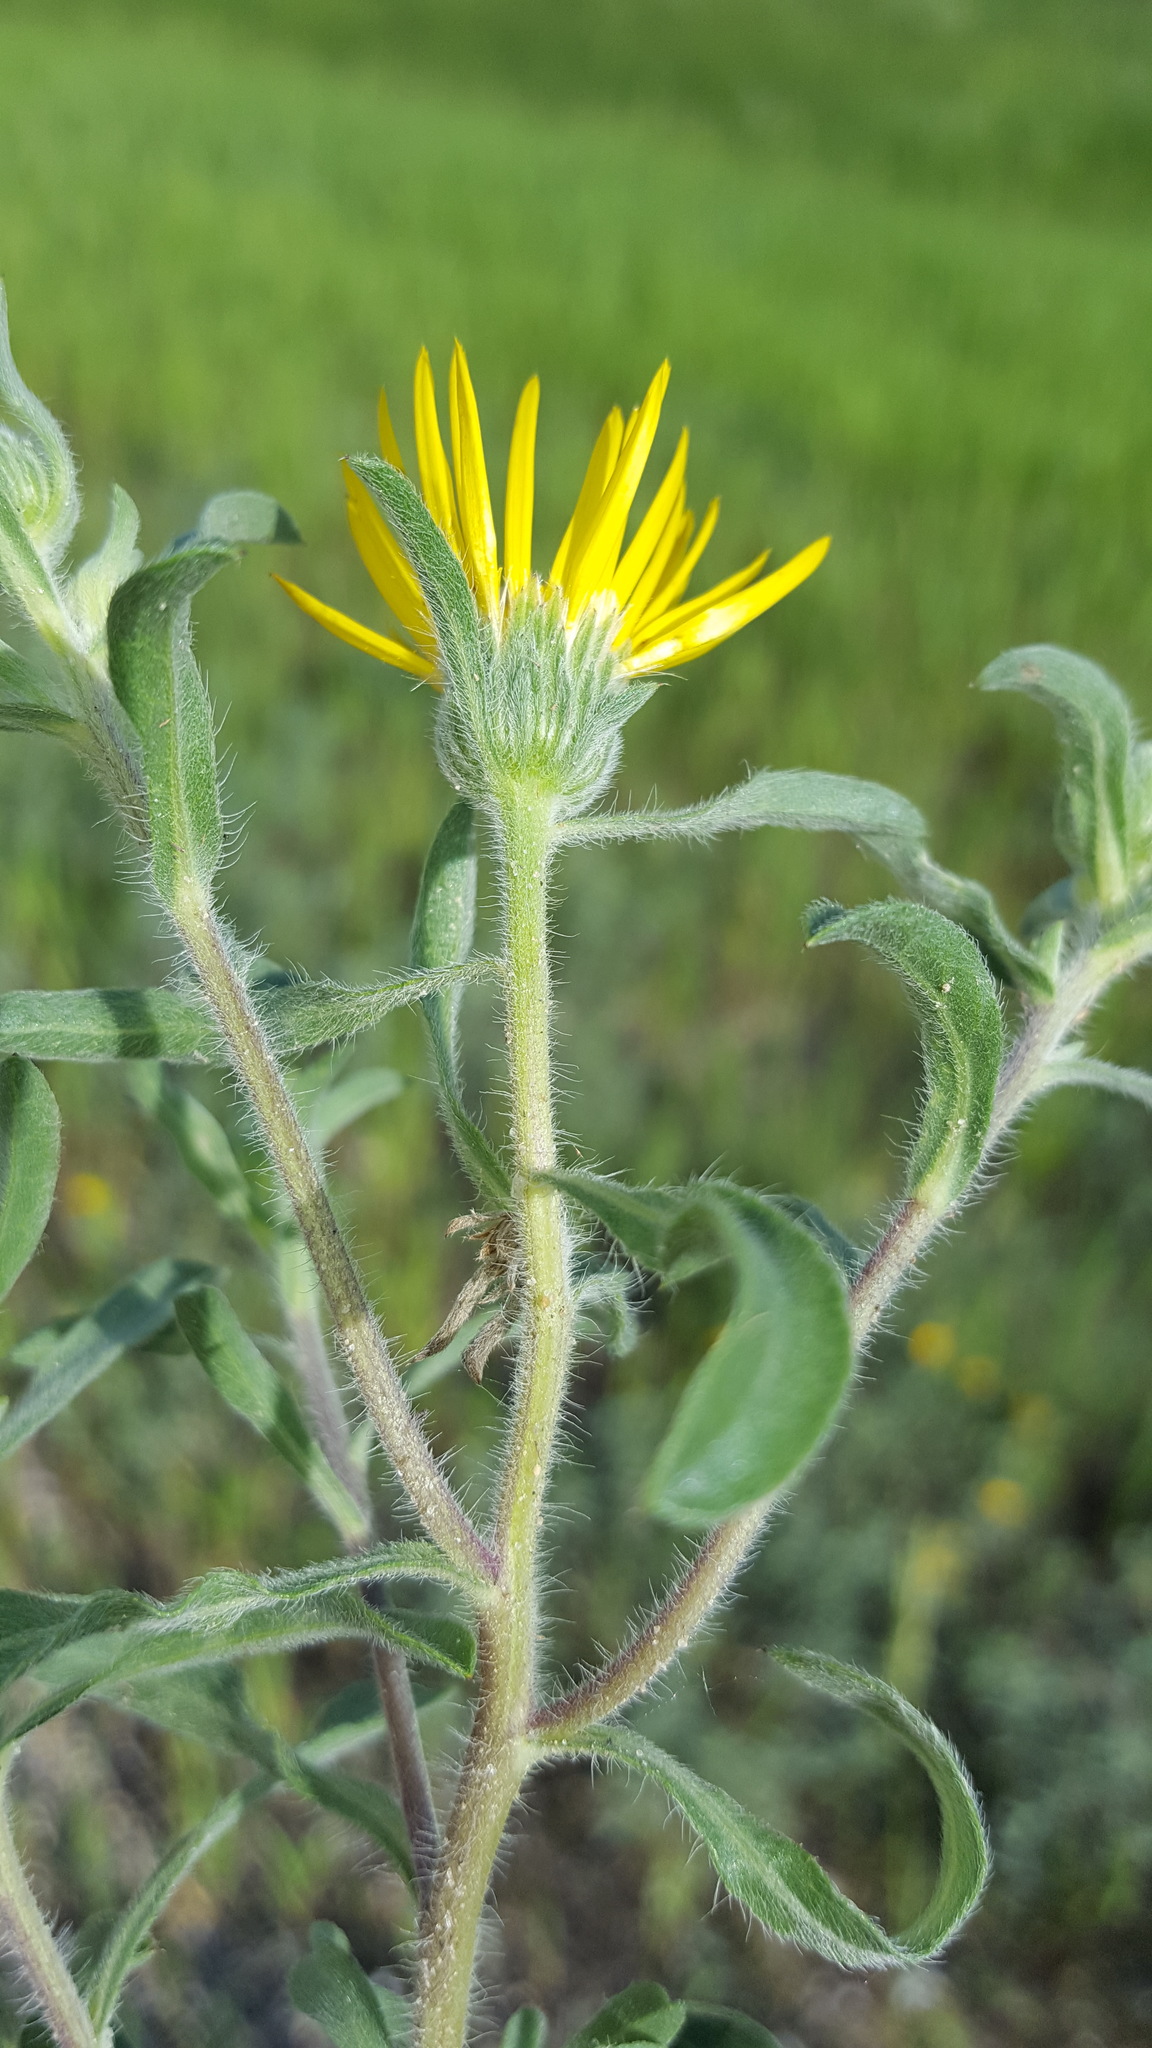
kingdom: Plantae
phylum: Tracheophyta
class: Magnoliopsida
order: Asterales
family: Asteraceae
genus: Heterotheca
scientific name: Heterotheca villosa
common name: Hairy false goldenaster
